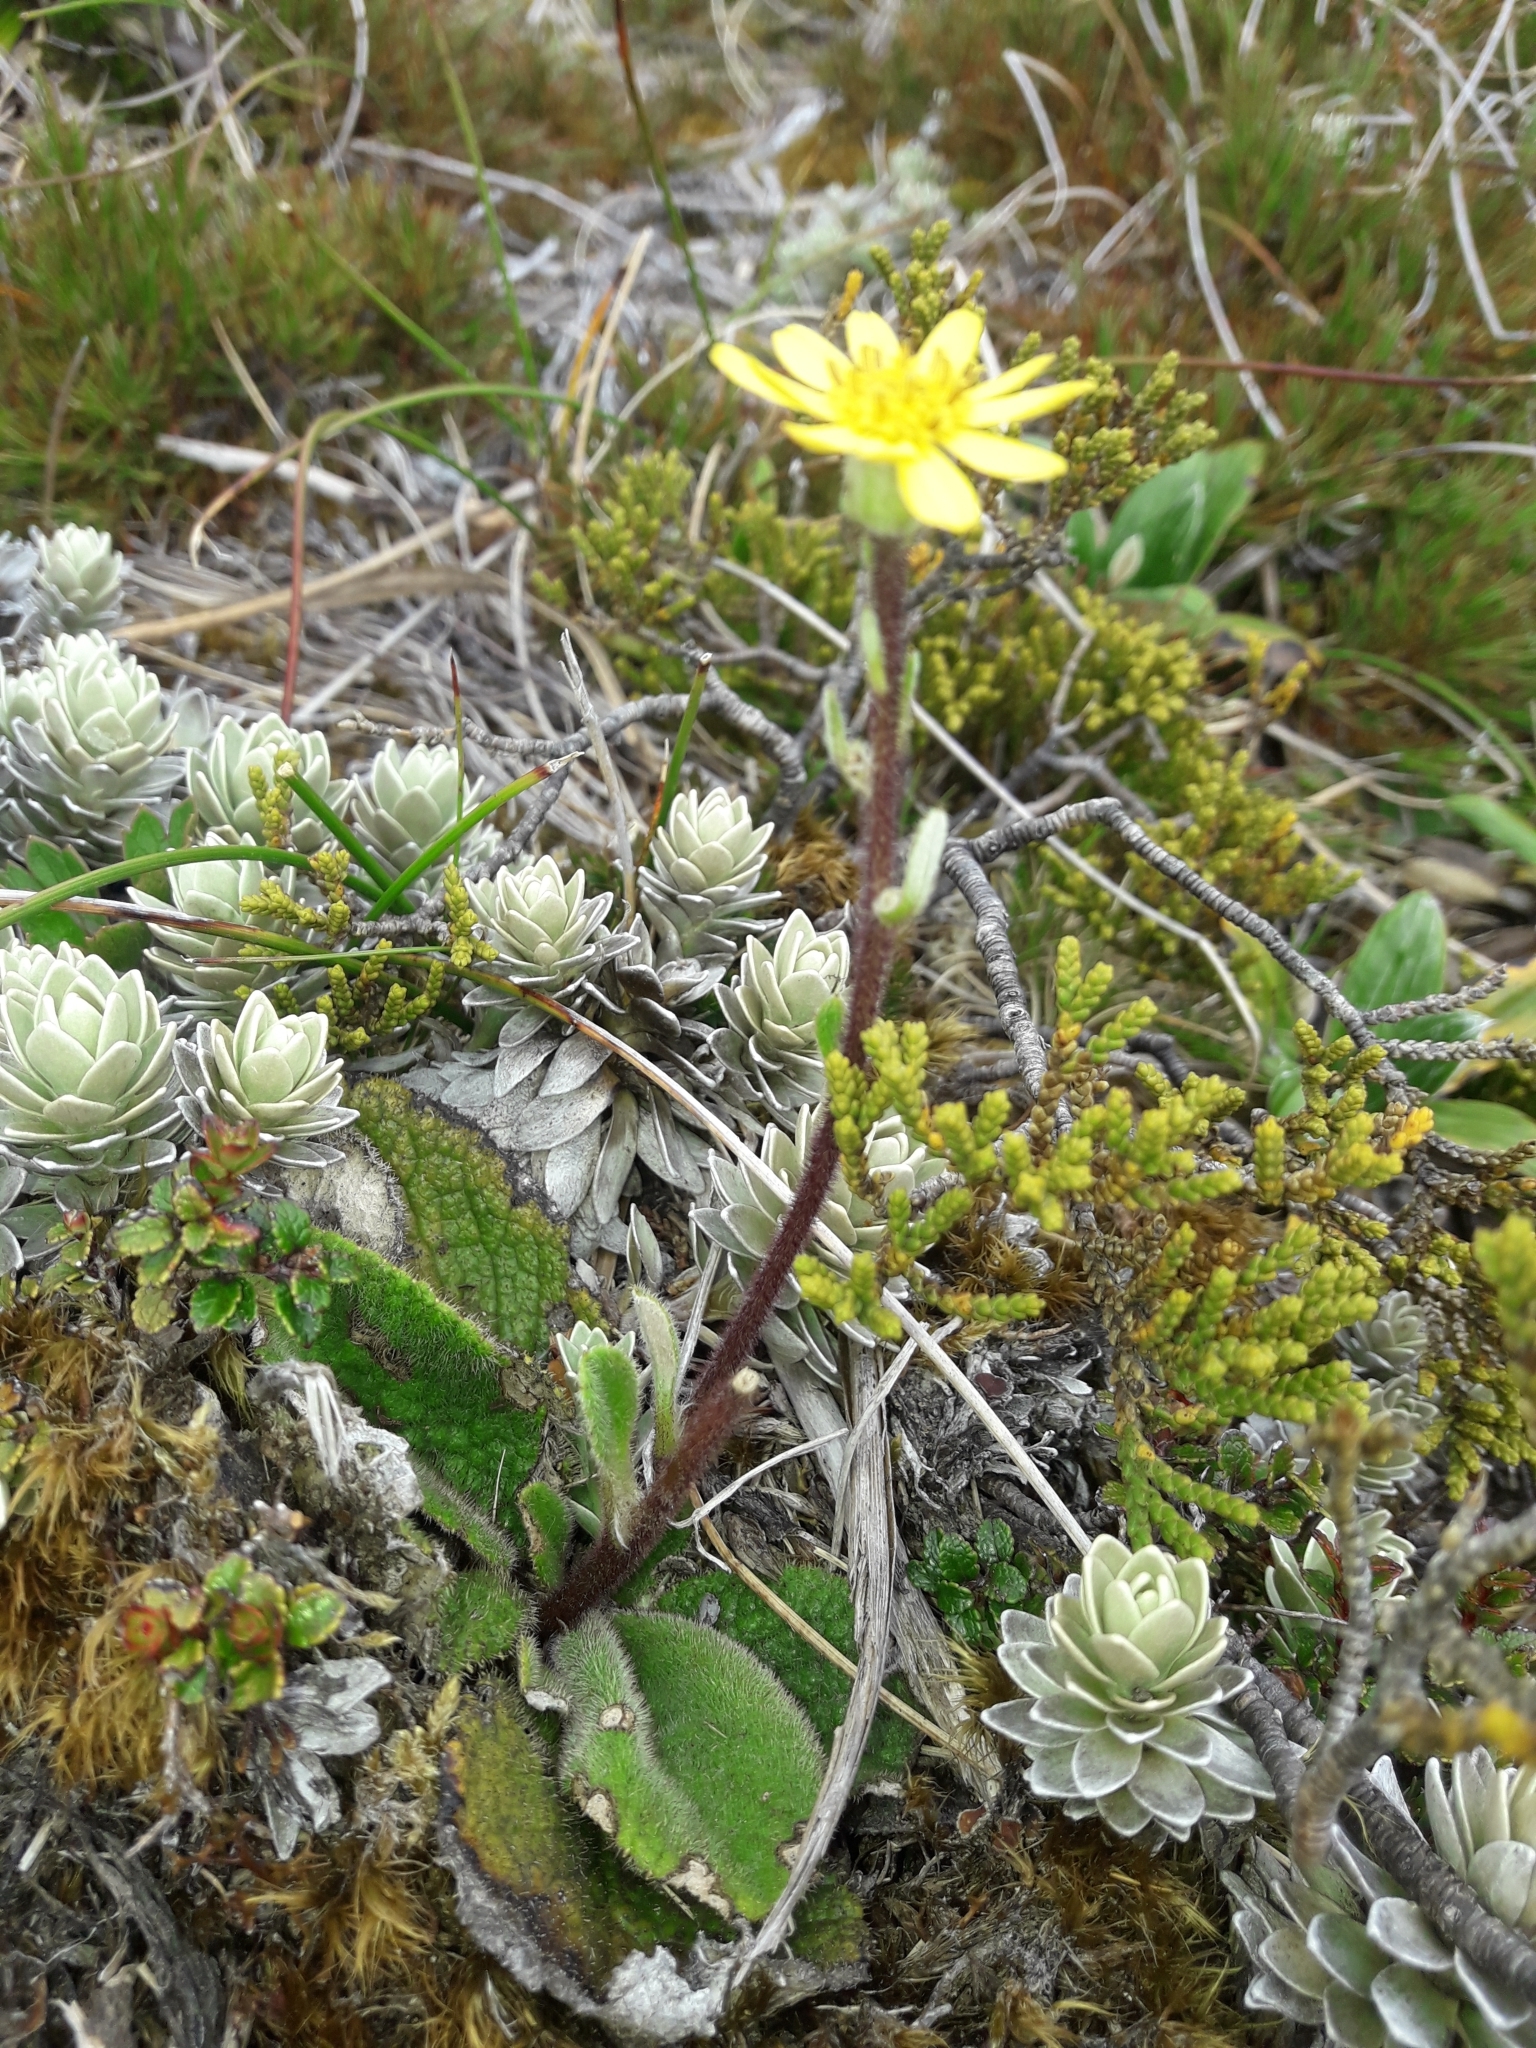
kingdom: Plantae
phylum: Tracheophyta
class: Magnoliopsida
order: Asterales
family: Asteraceae
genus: Brachyglottis
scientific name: Brachyglottis lagopus
